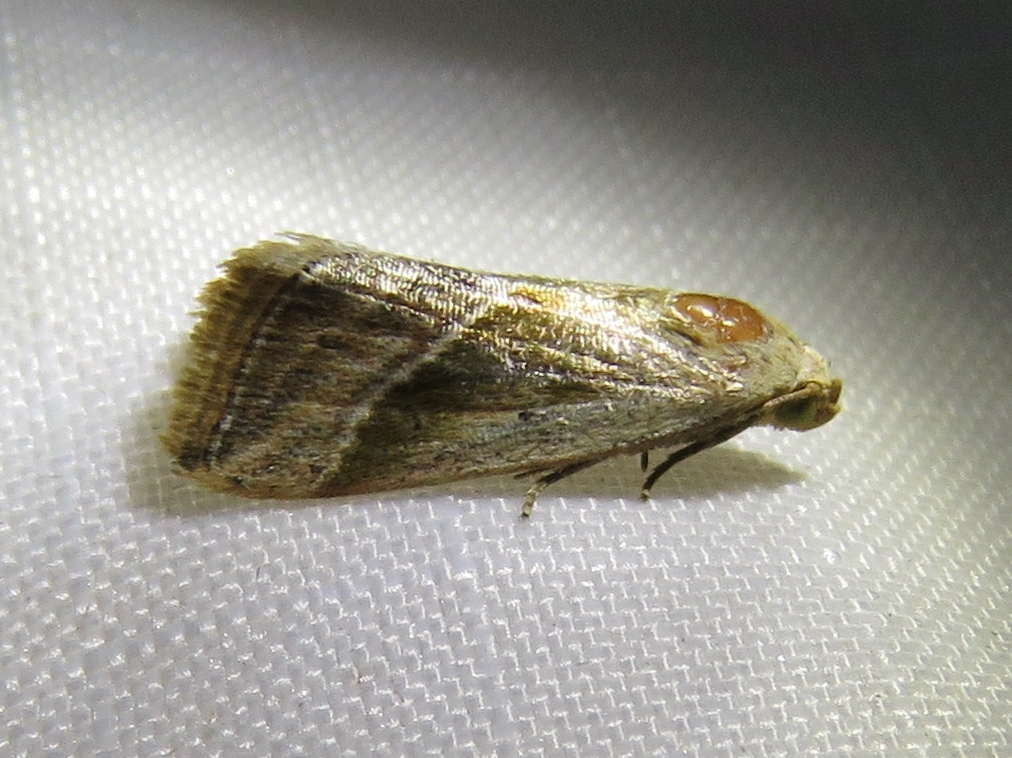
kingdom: Animalia
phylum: Arthropoda
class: Insecta
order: Lepidoptera
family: Noctuidae
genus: Micrathetis
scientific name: Micrathetis tecnion
